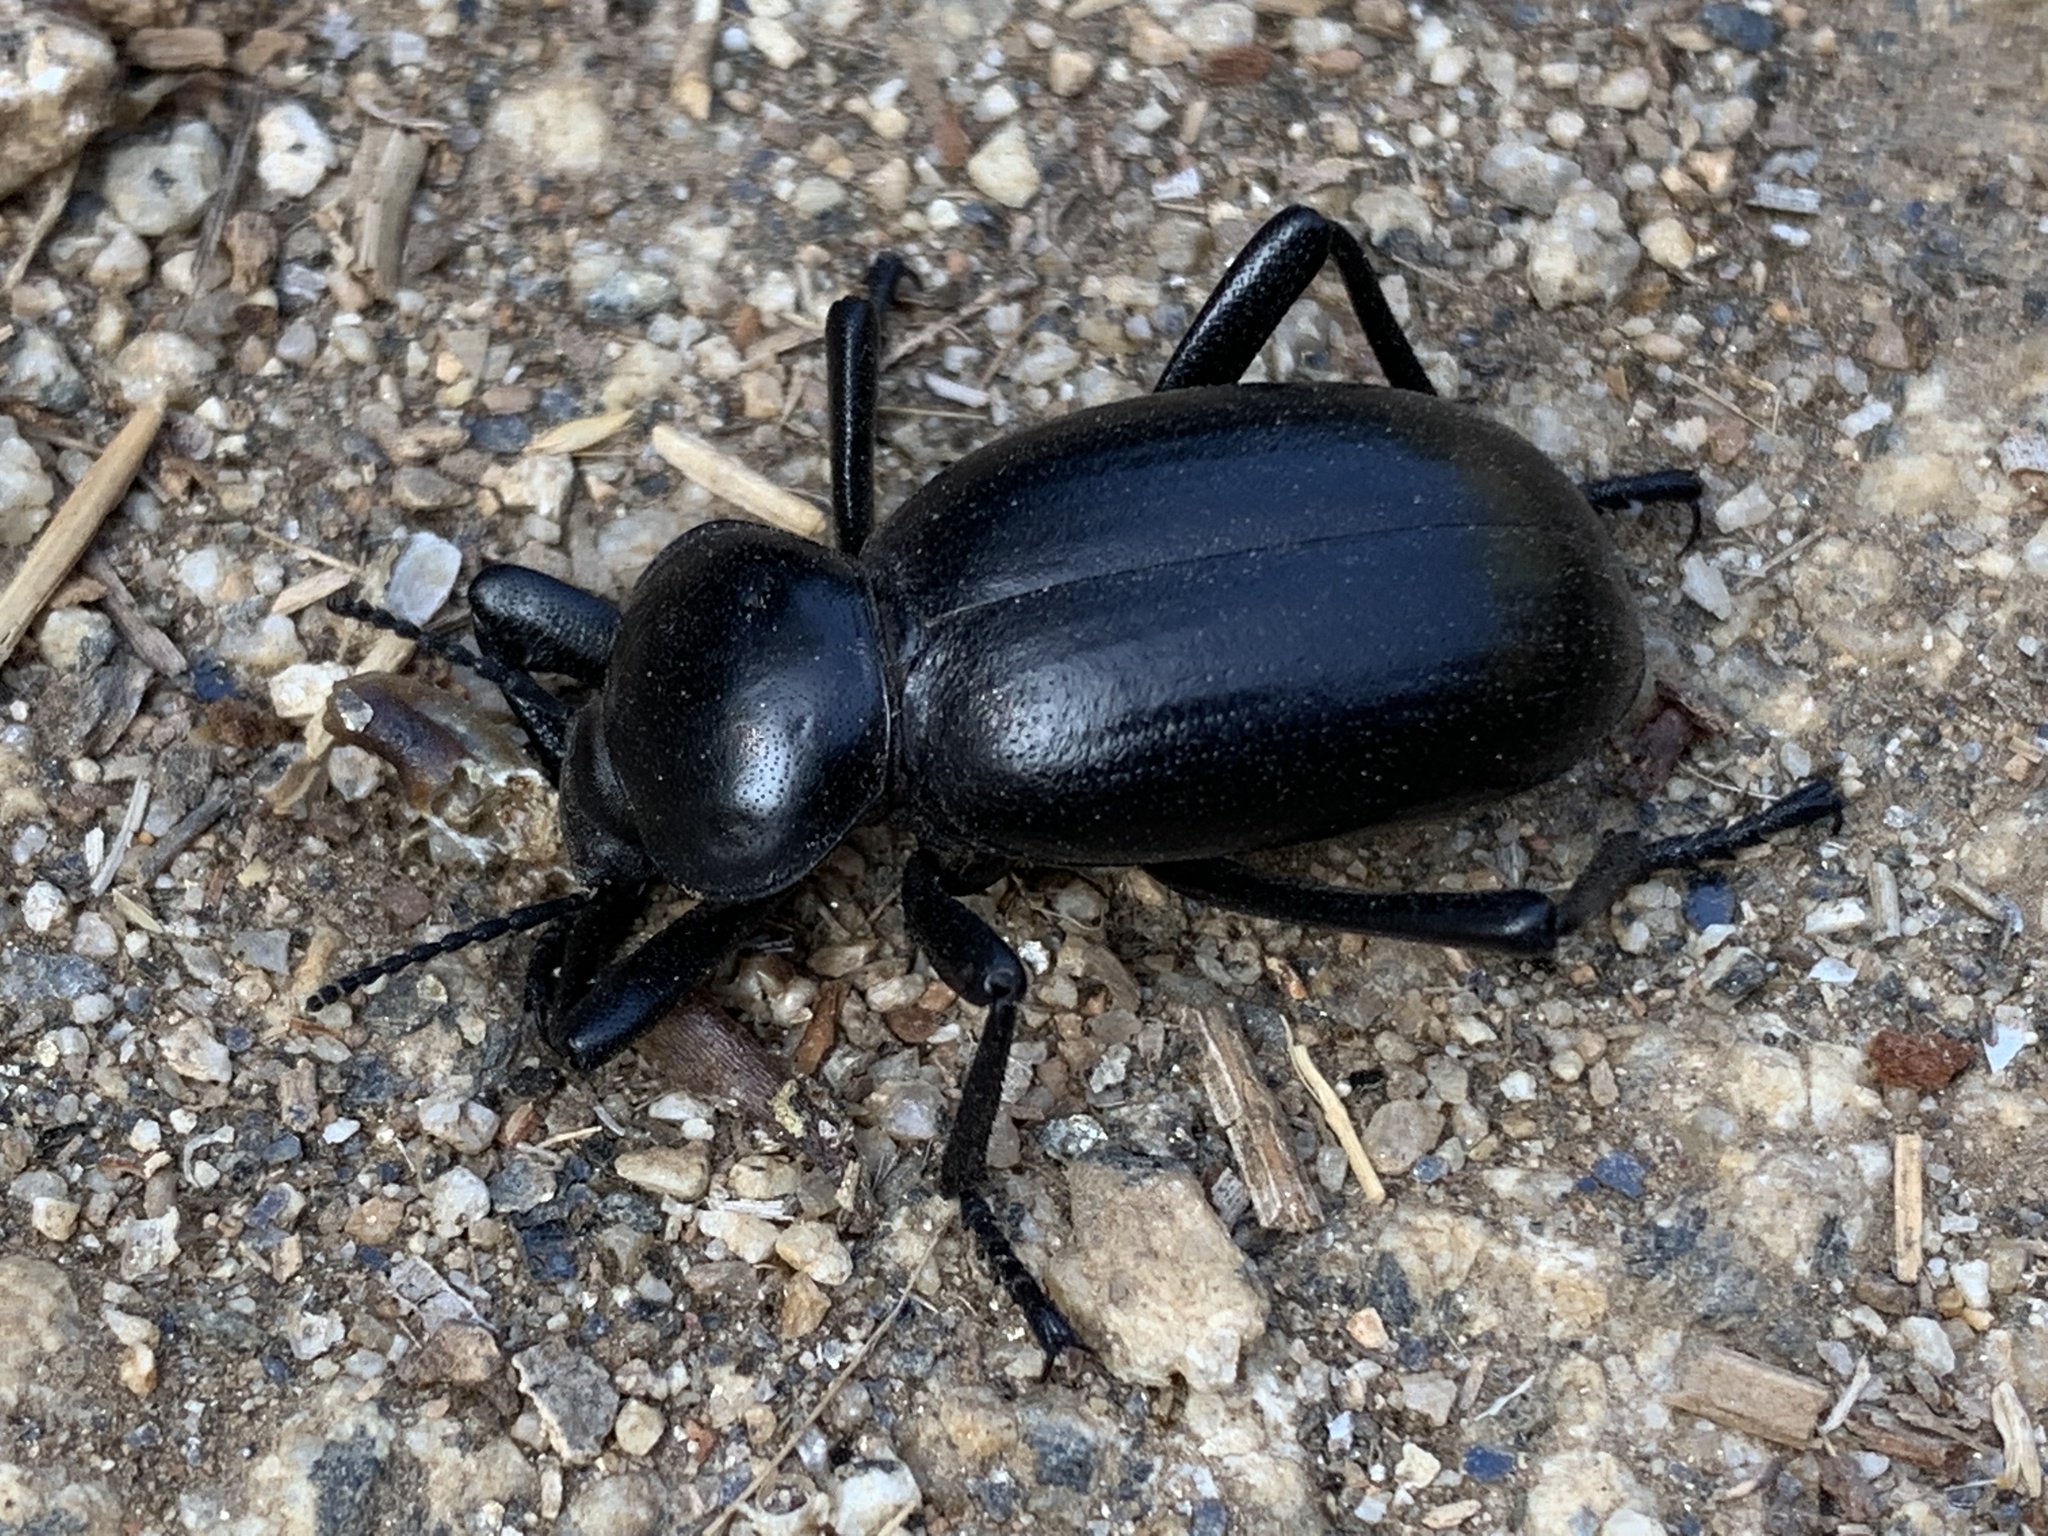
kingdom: Animalia
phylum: Arthropoda
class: Insecta
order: Coleoptera
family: Tenebrionidae
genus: Eleodes
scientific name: Eleodes grandicollis
